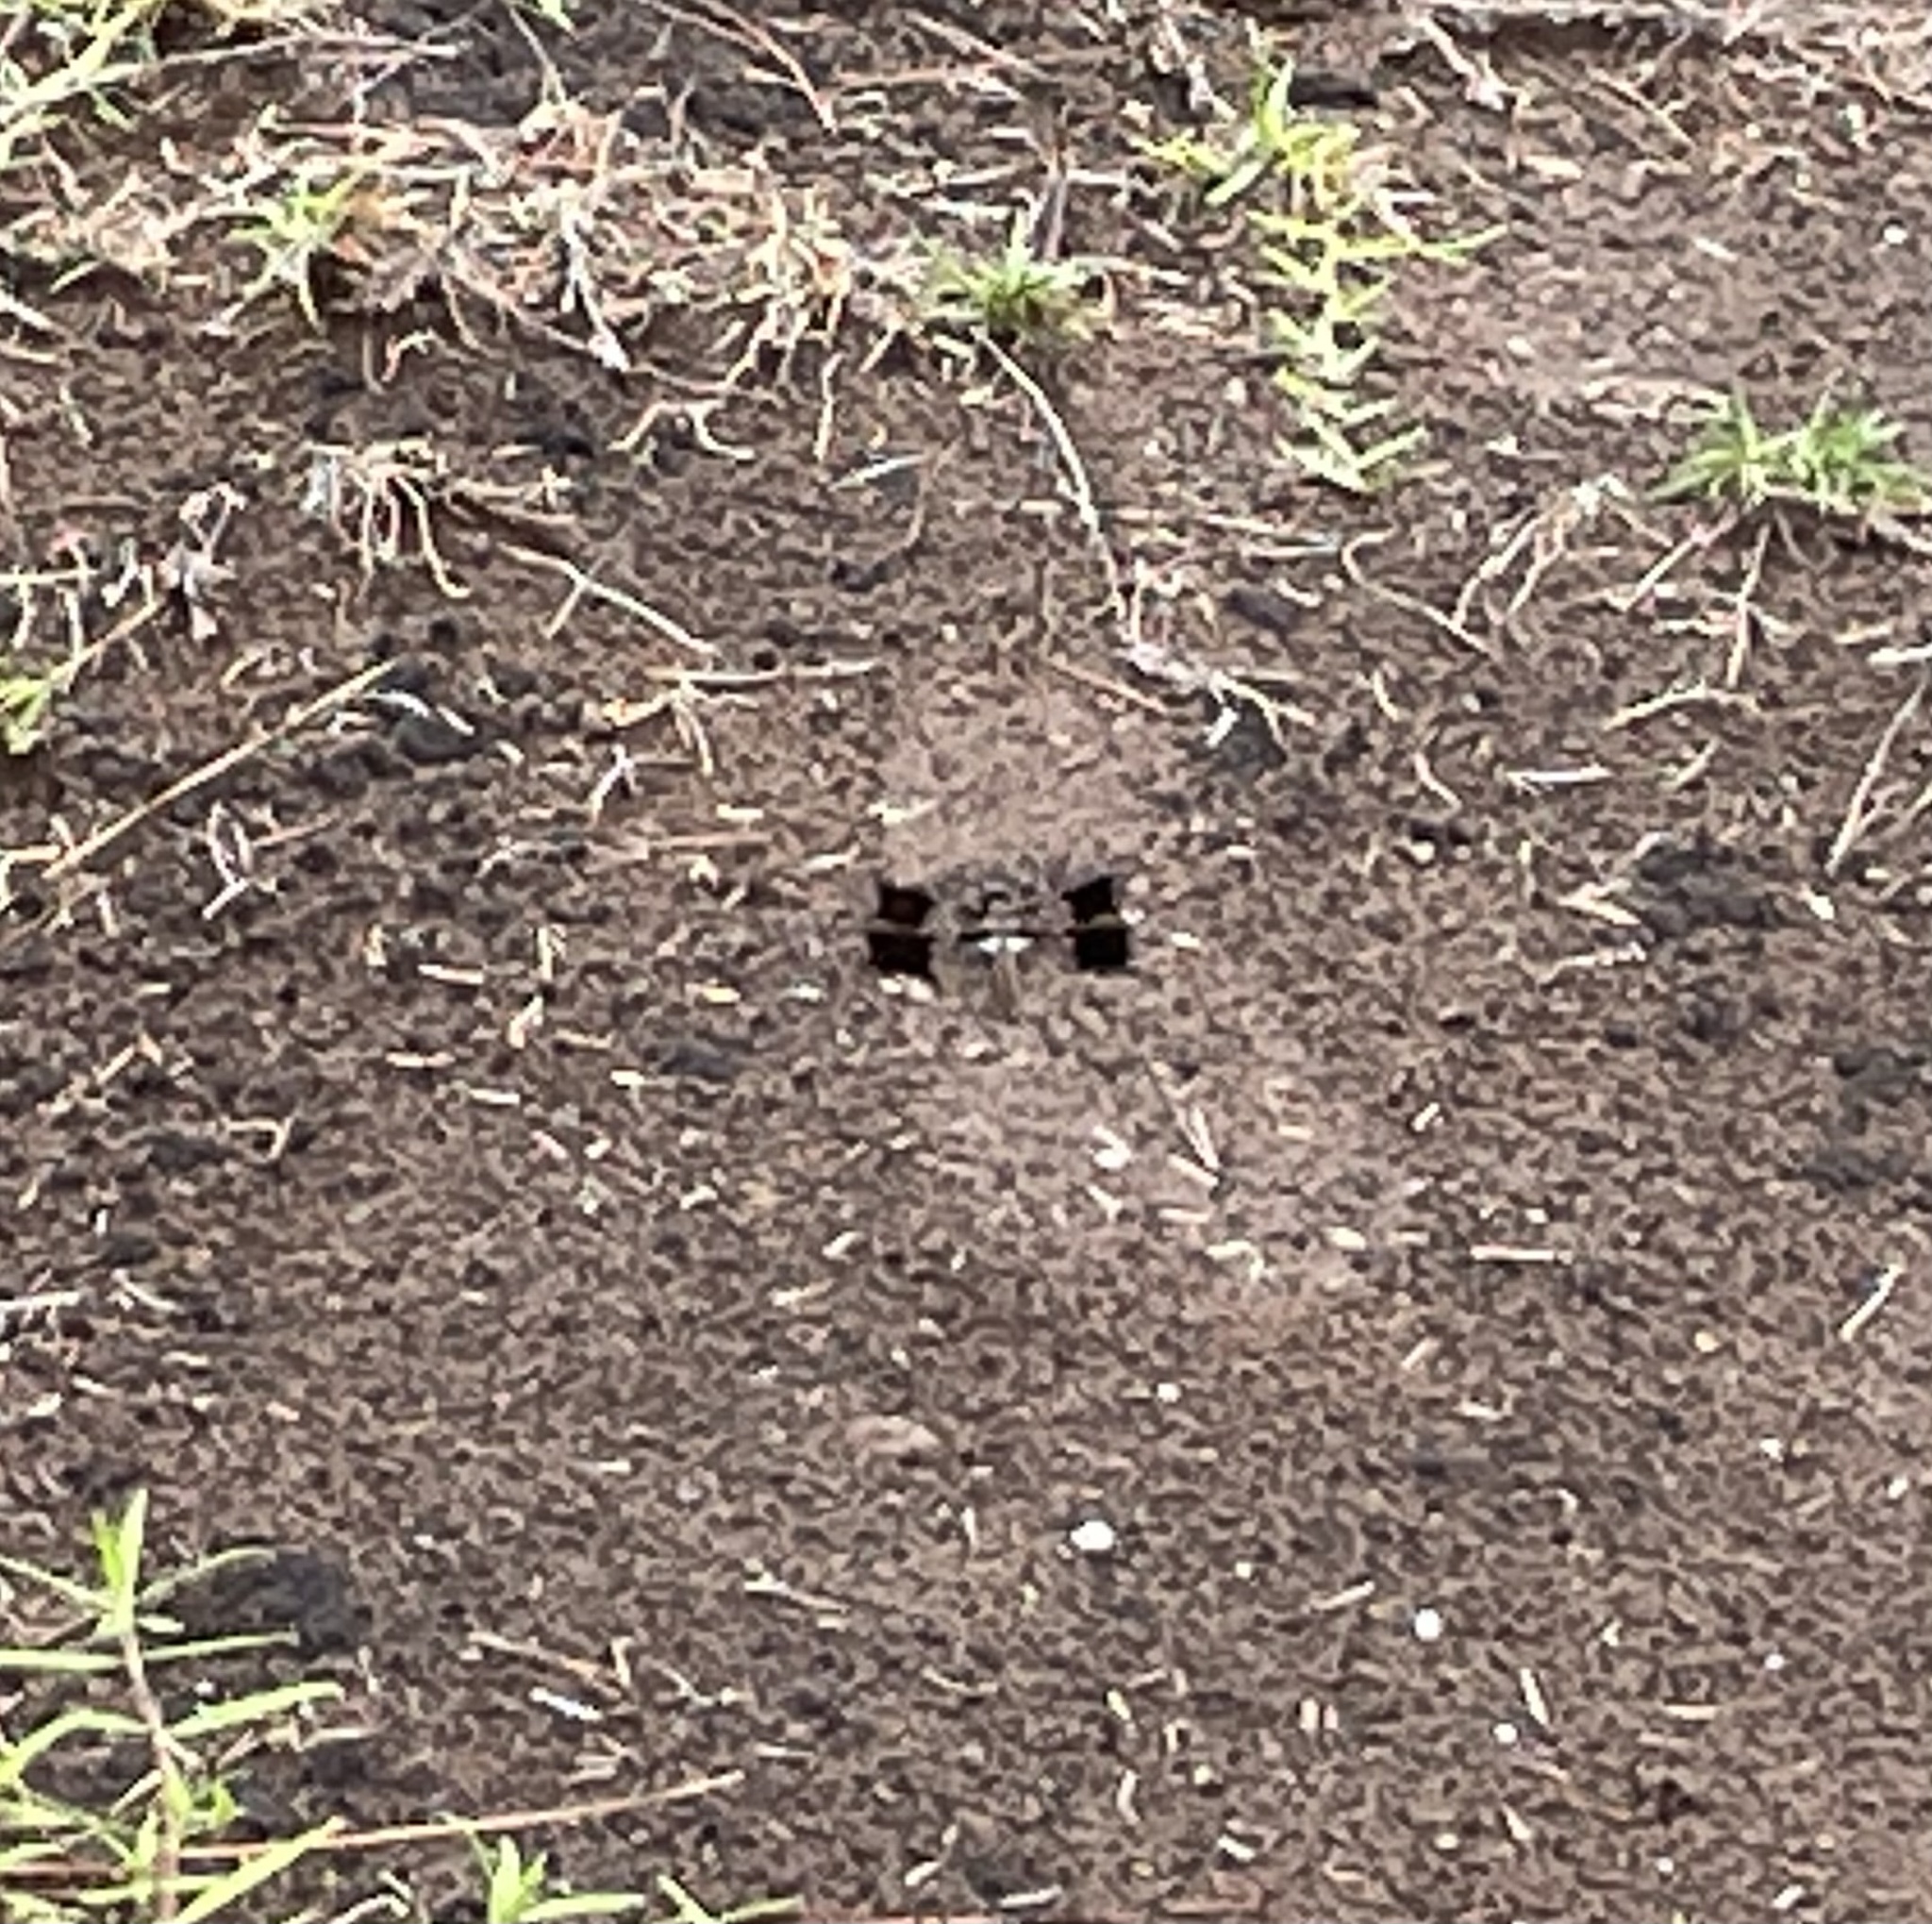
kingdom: Animalia
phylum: Arthropoda
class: Insecta
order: Odonata
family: Libellulidae
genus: Plathemis
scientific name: Plathemis lydia
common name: Common whitetail
